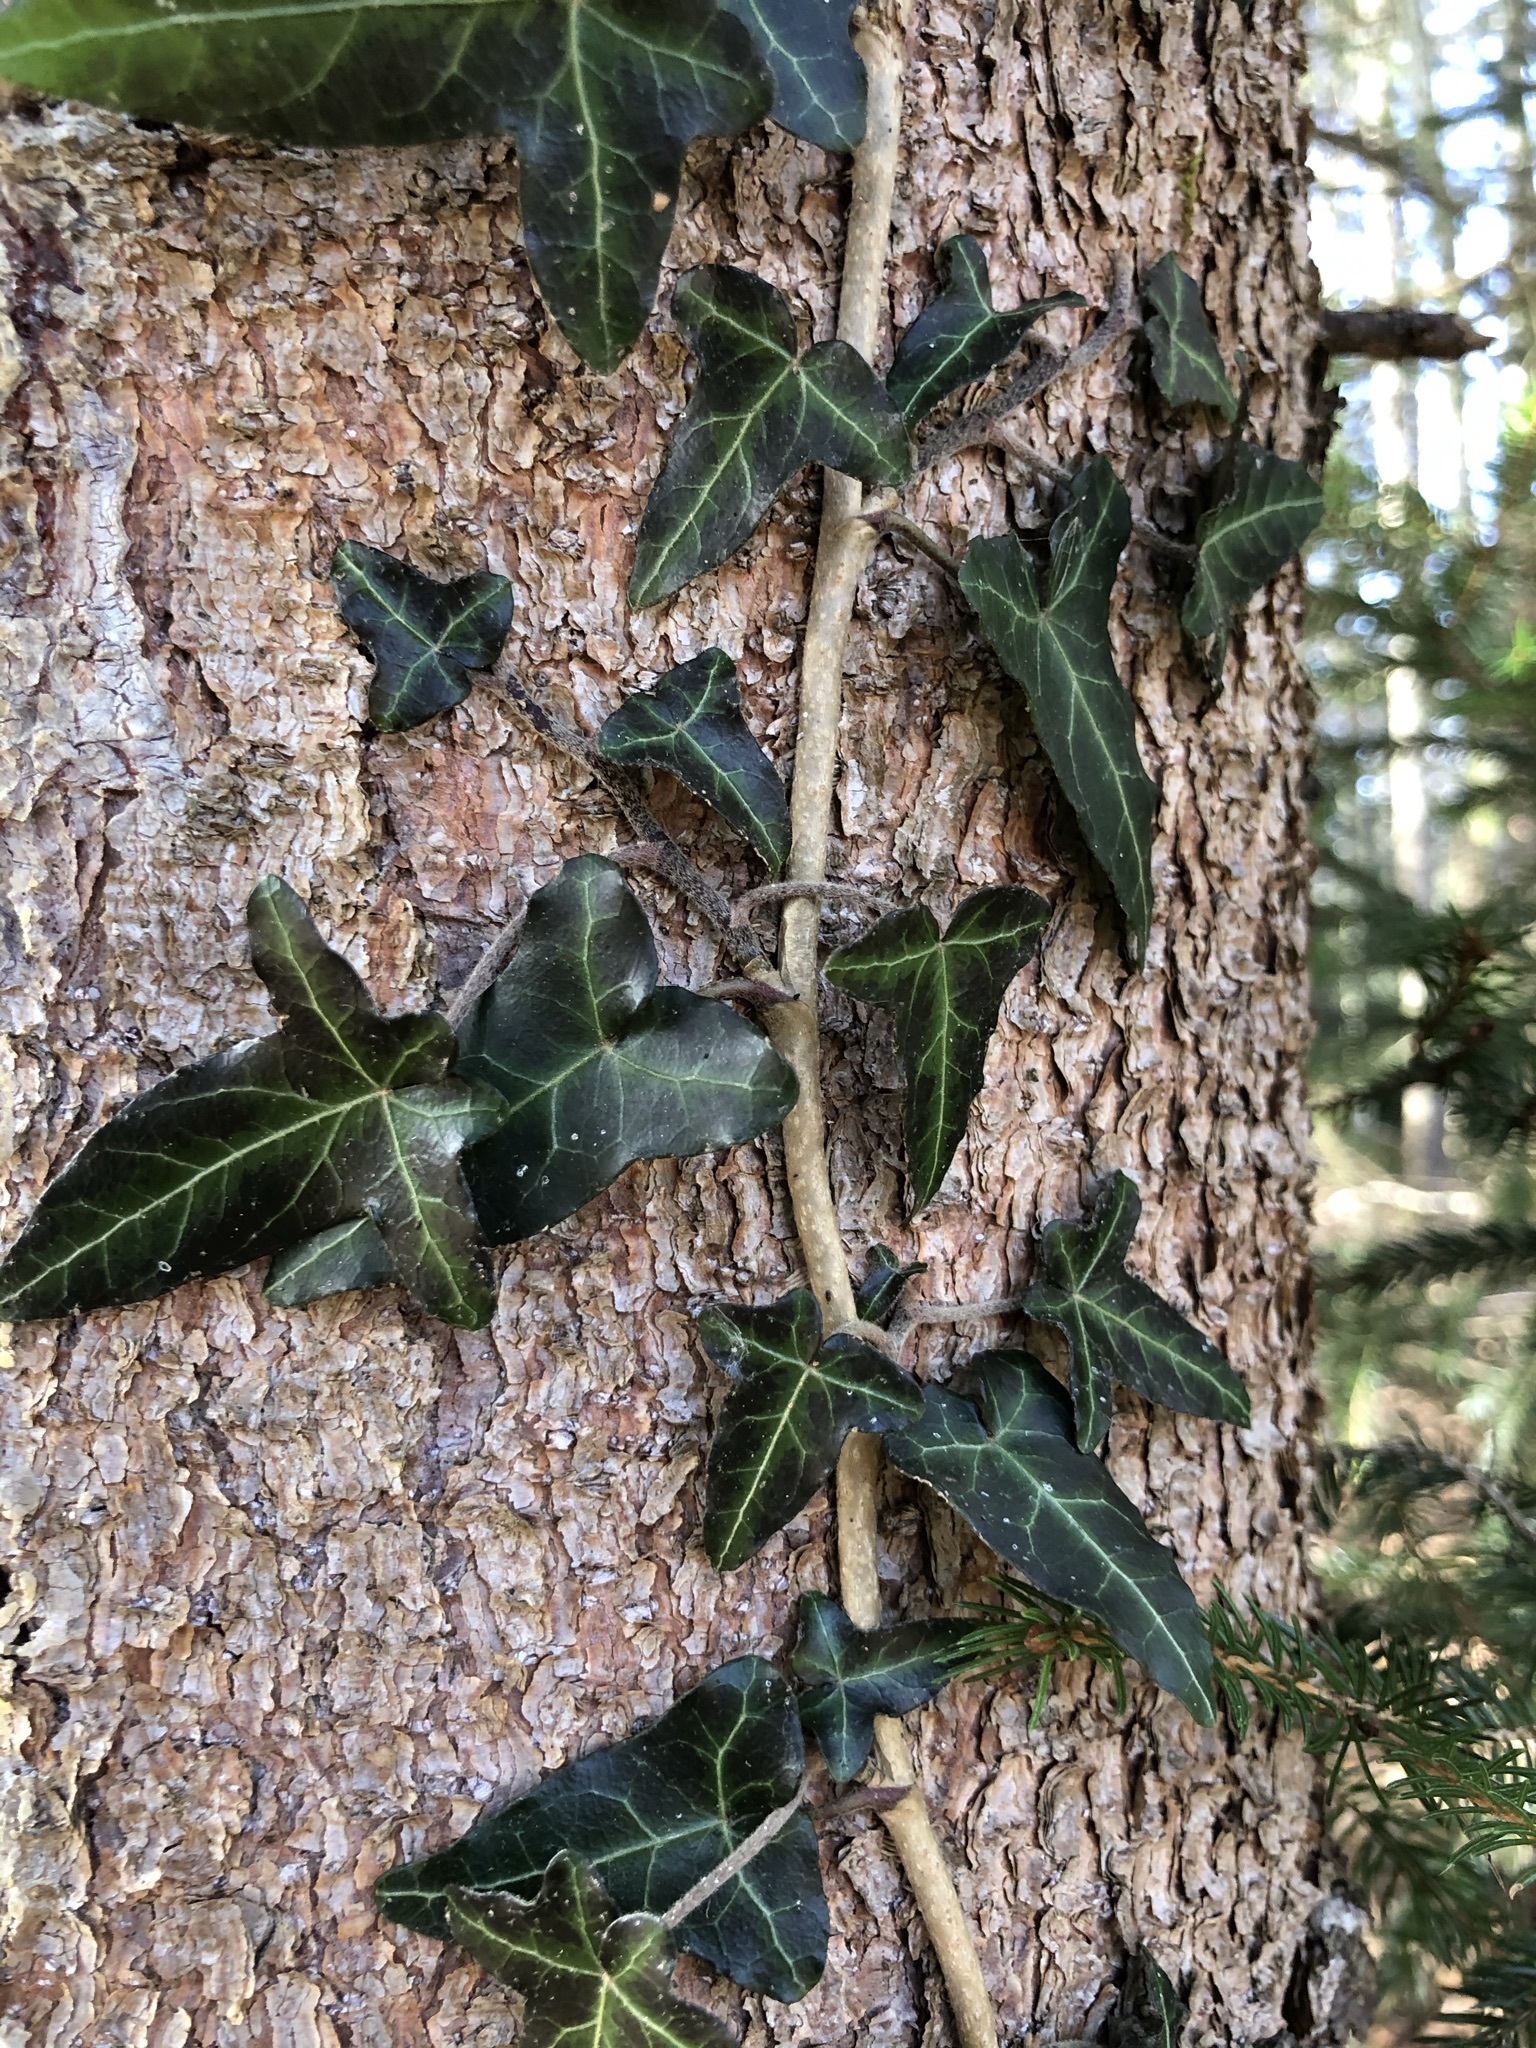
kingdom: Plantae
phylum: Tracheophyta
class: Magnoliopsida
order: Apiales
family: Araliaceae
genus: Hedera
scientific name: Hedera helix
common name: Ivy
